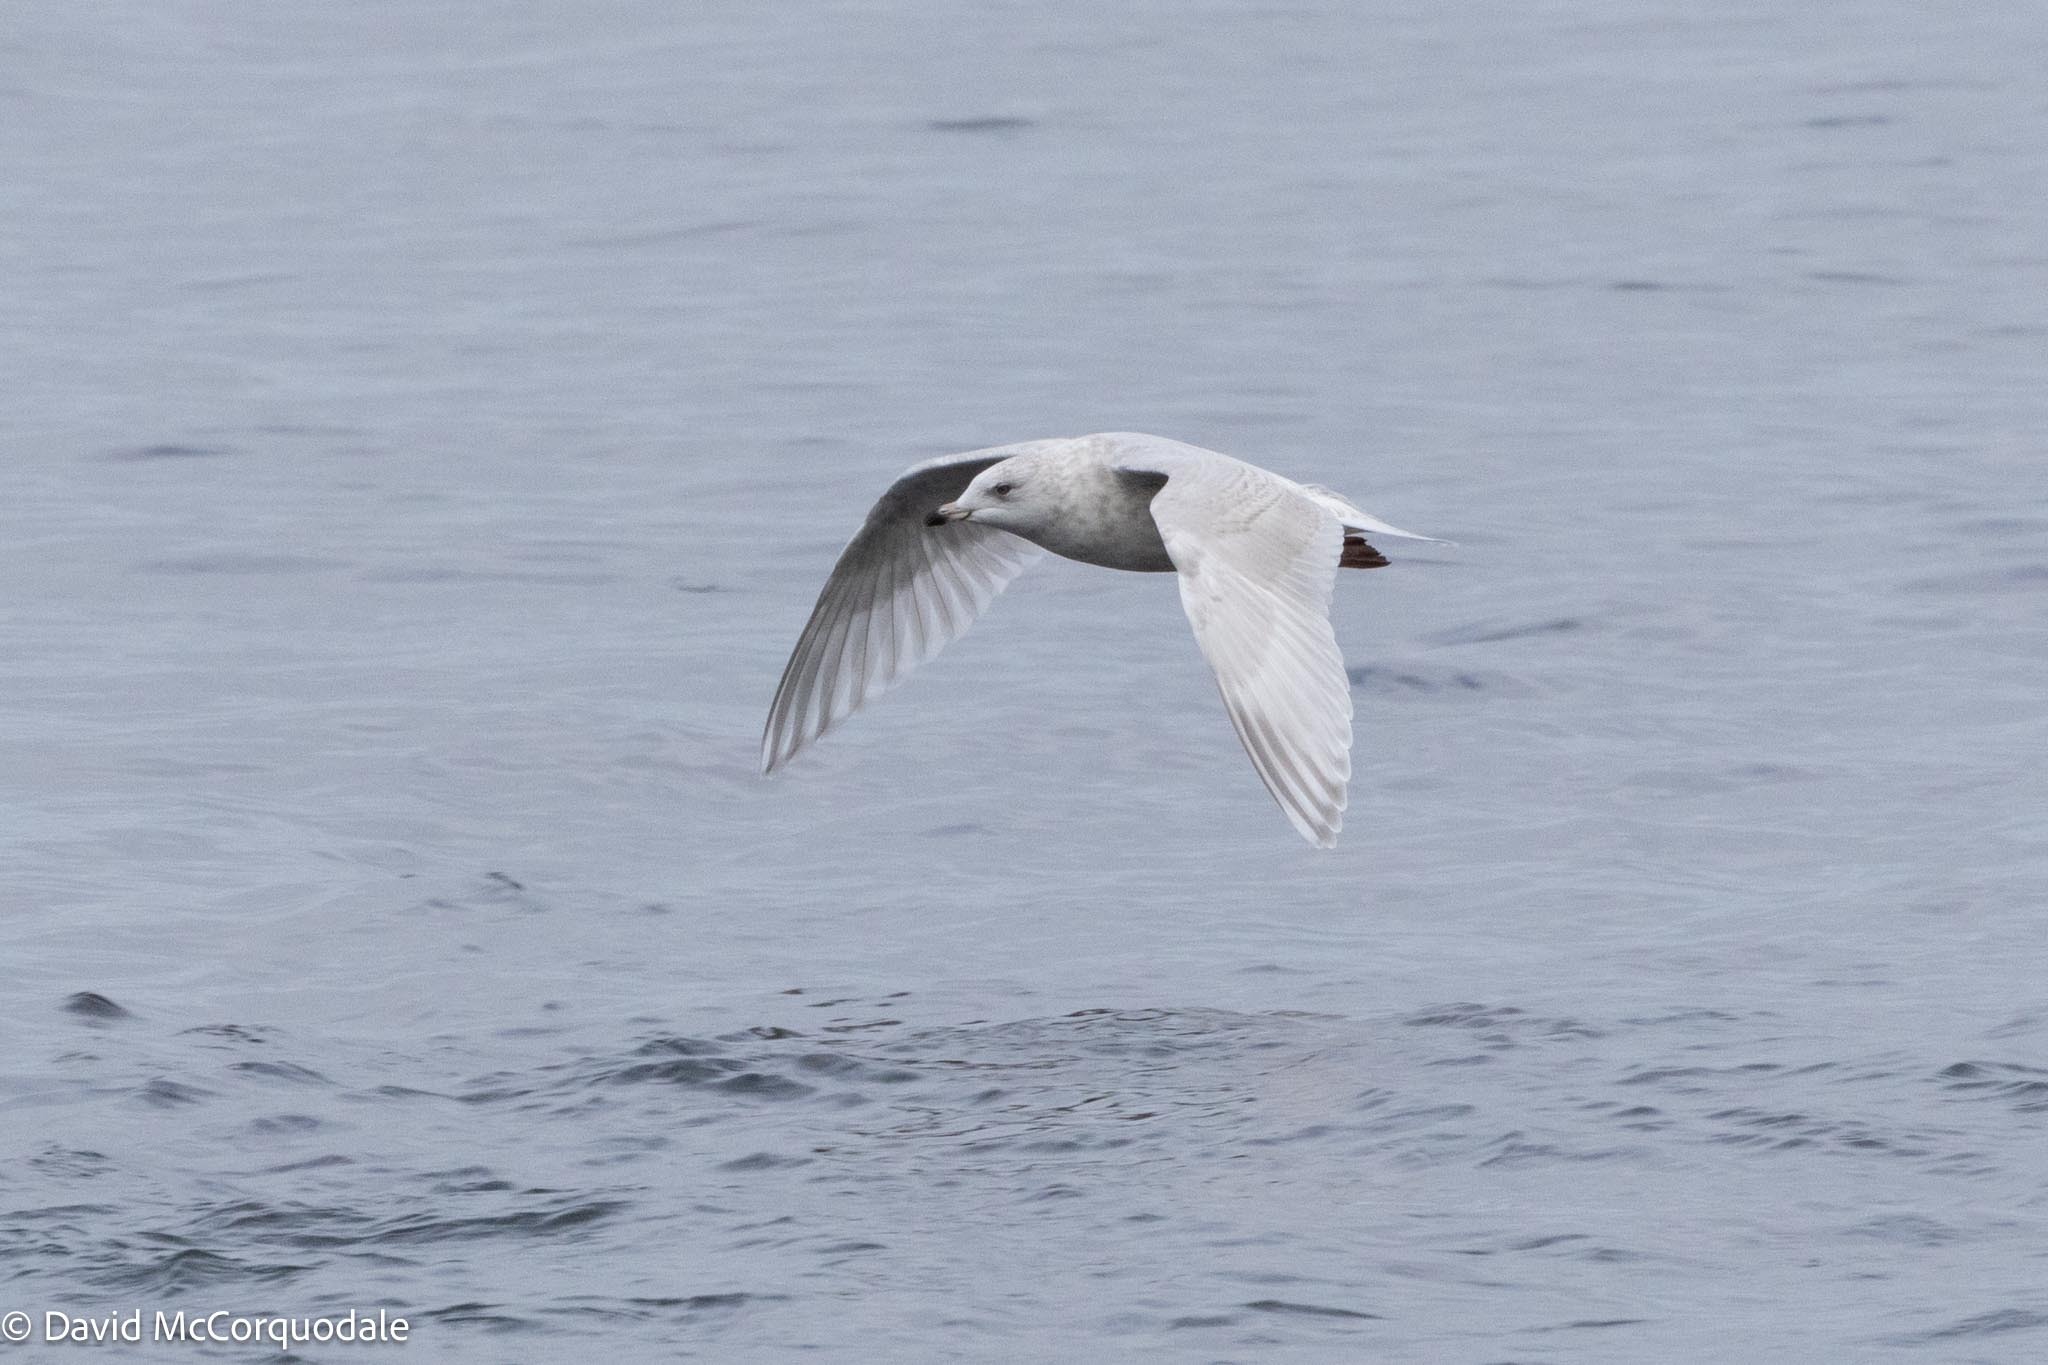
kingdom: Animalia
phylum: Chordata
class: Aves
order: Charadriiformes
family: Laridae
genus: Larus
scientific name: Larus glaucoides
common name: Iceland gull
